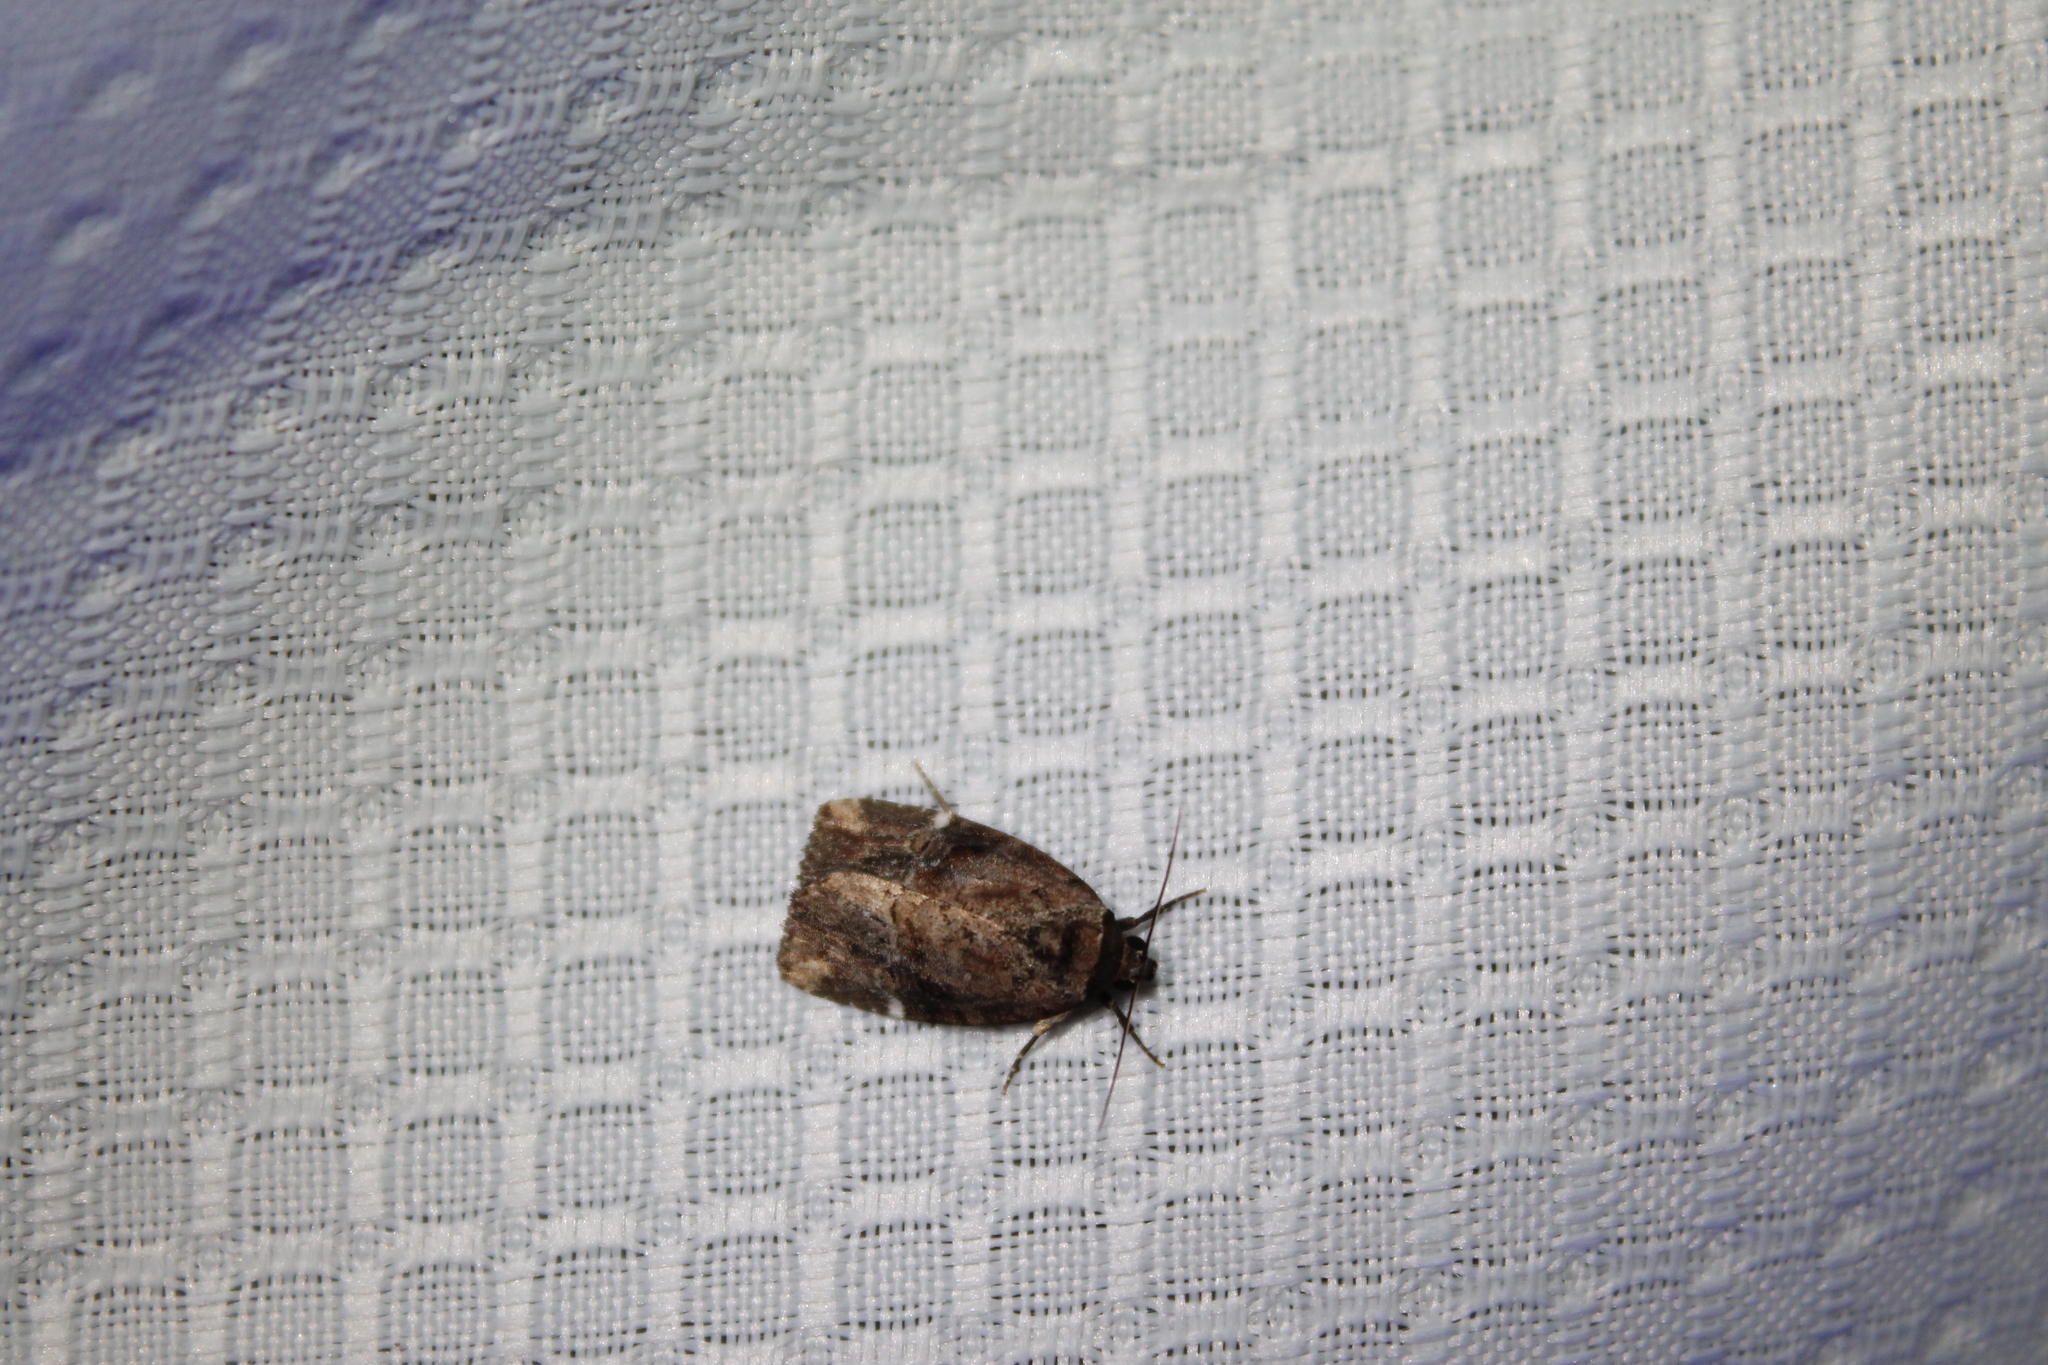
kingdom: Animalia
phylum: Arthropoda
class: Insecta
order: Lepidoptera
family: Noctuidae
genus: Elaphria
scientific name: Elaphria versicolor
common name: Fir harlequin
